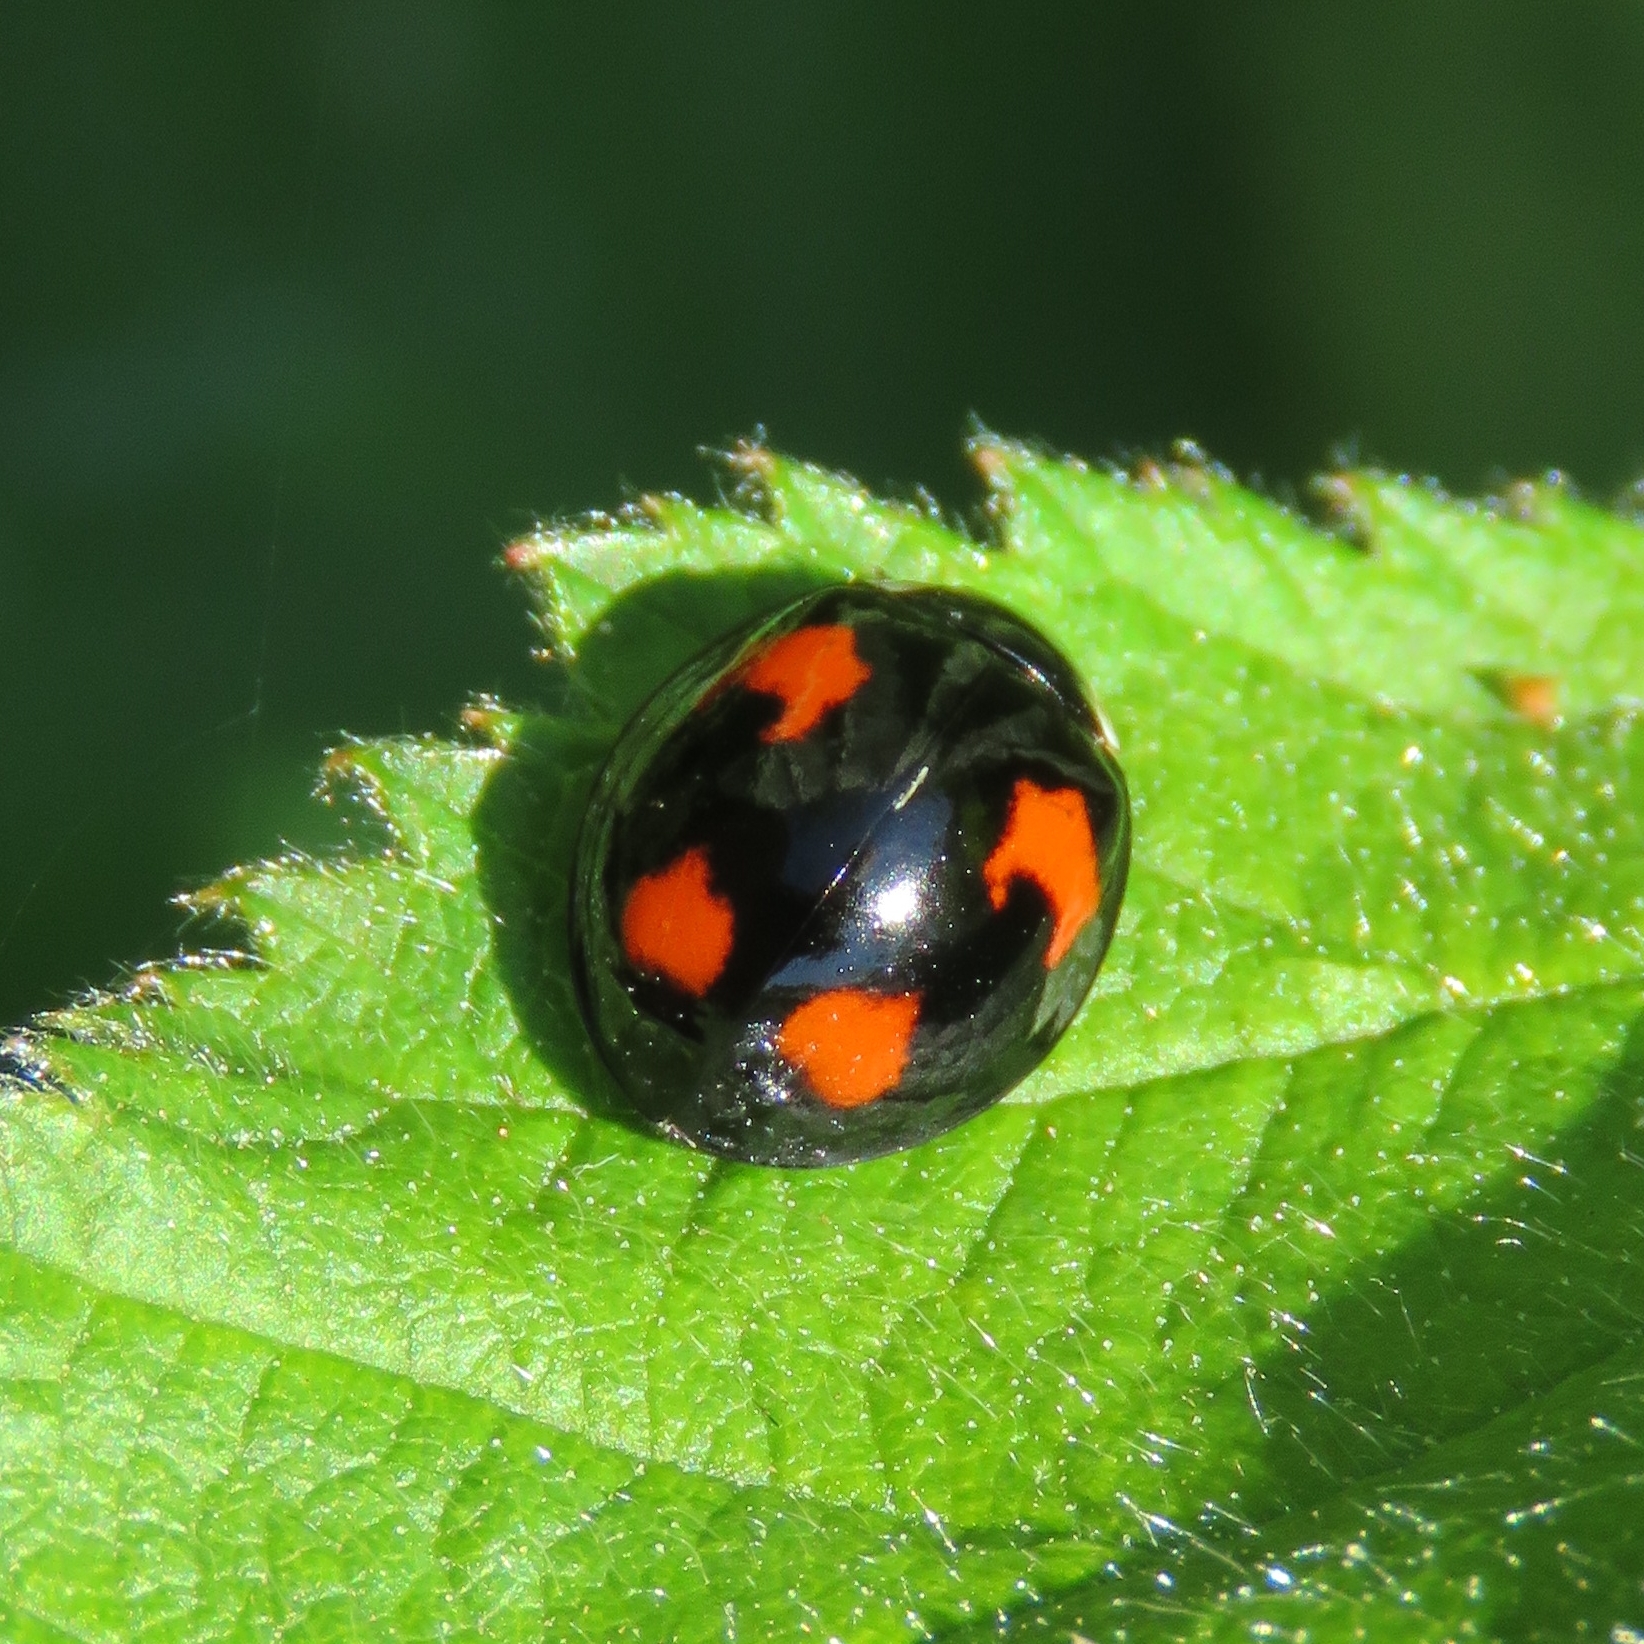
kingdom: Animalia
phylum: Arthropoda
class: Insecta
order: Coleoptera
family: Coccinellidae
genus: Harmonia
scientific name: Harmonia axyridis
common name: Harlequin ladybird
